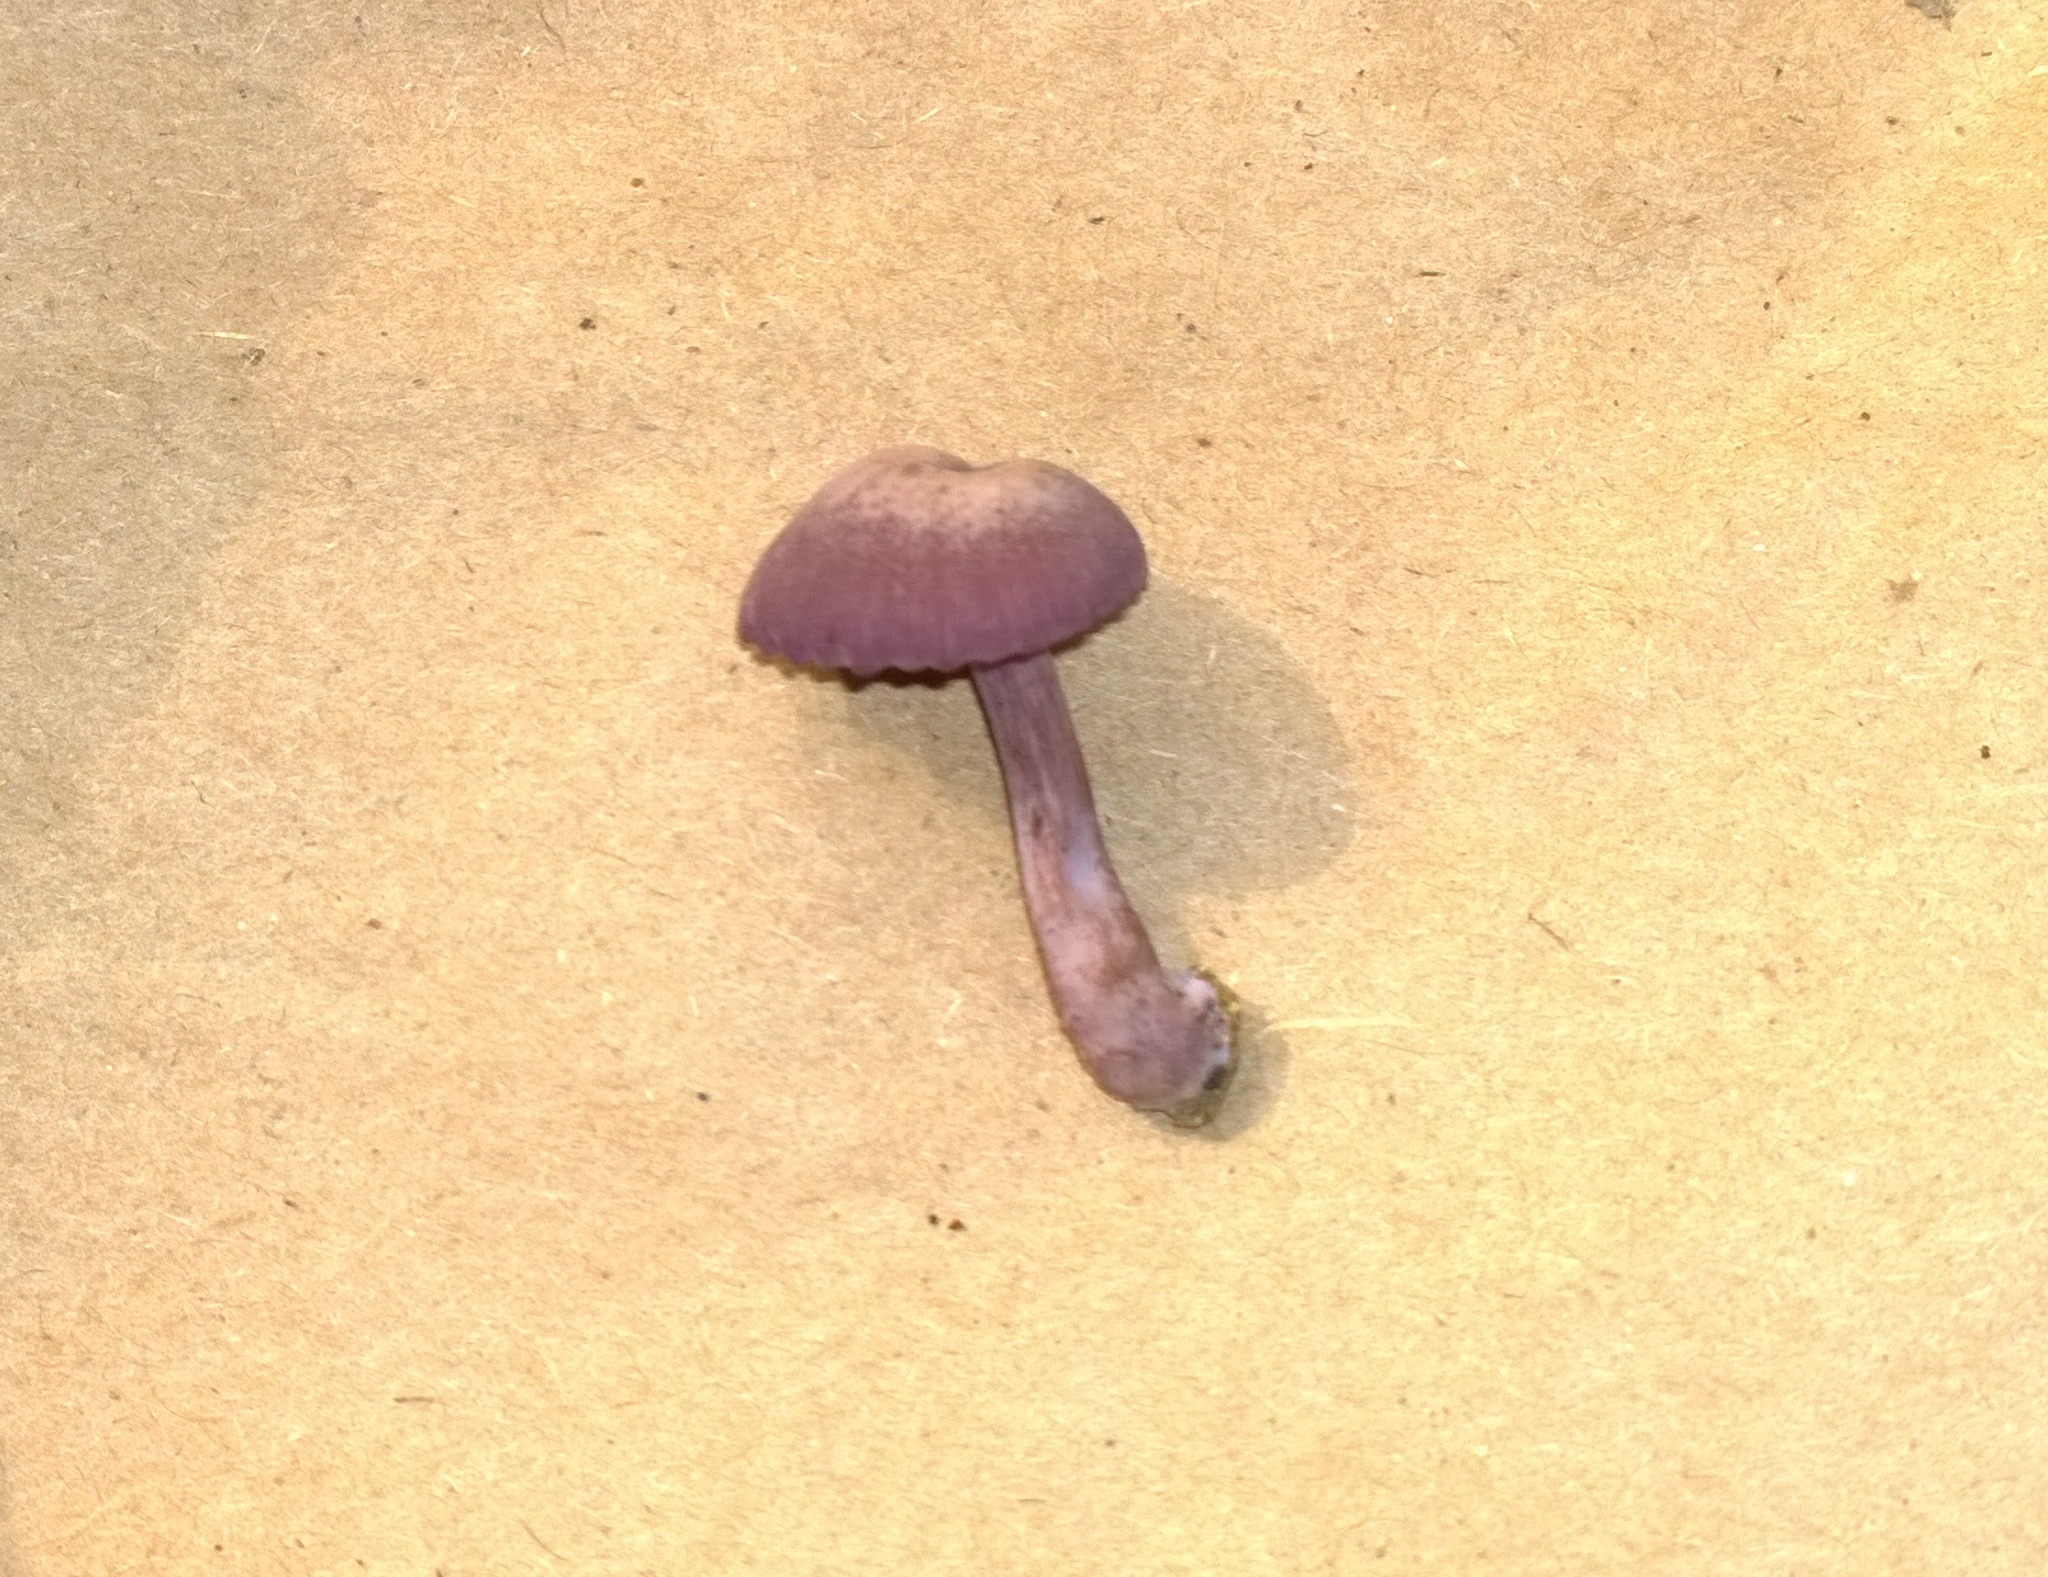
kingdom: Fungi
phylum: Basidiomycota
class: Agaricomycetes
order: Agaricales
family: Hydnangiaceae
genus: Laccaria
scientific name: Laccaria amethystina
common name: Amethyst deceiver
